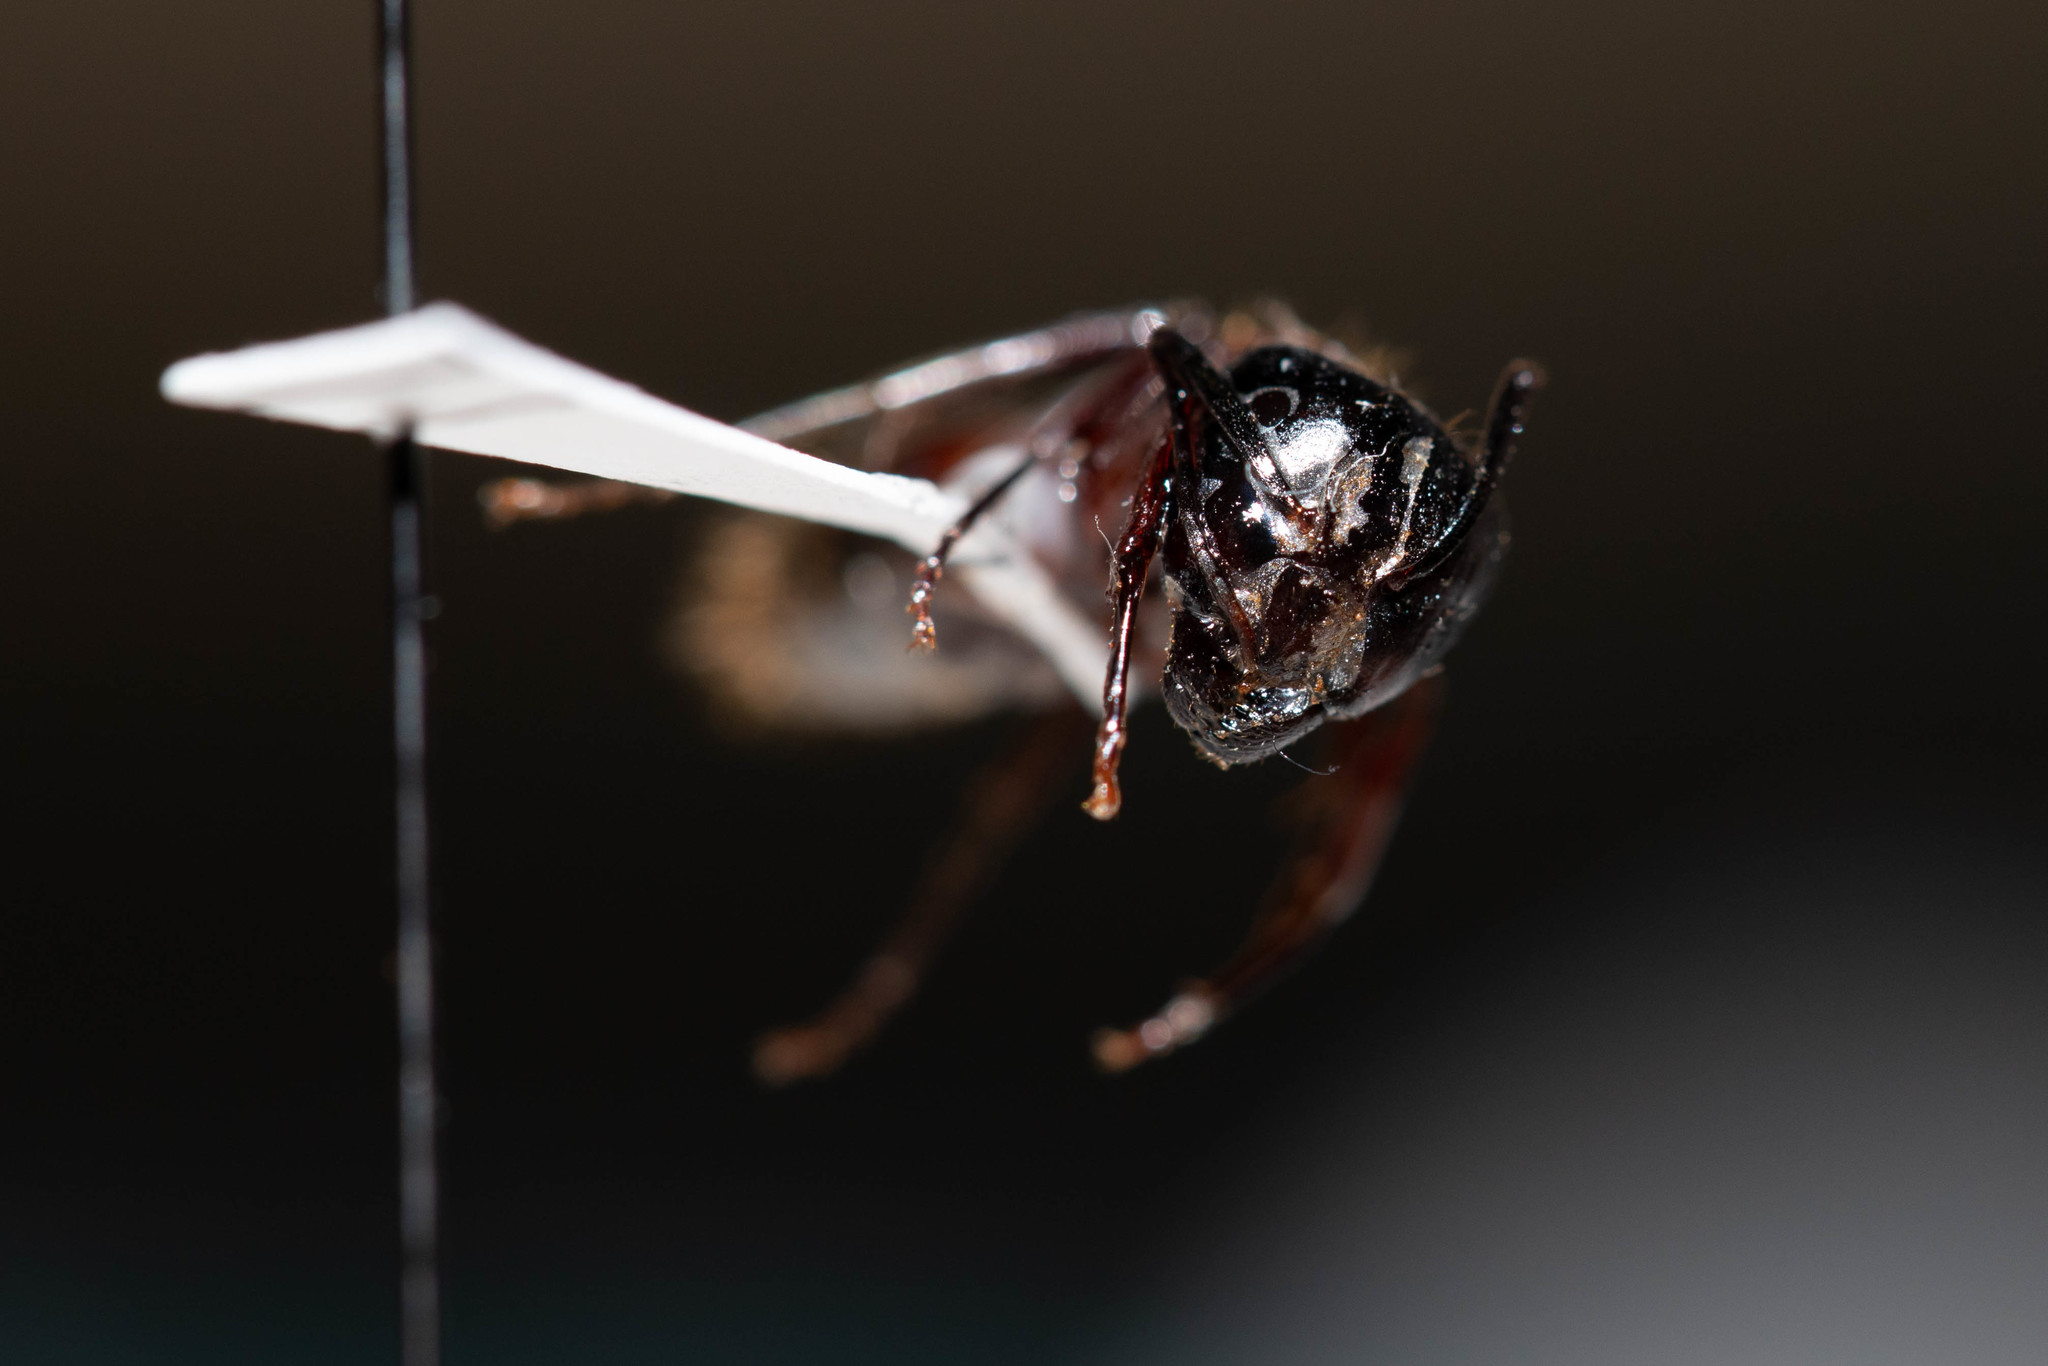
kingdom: Animalia
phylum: Arthropoda
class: Insecta
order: Hymenoptera
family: Formicidae
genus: Camponotus
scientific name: Camponotus vicinus
